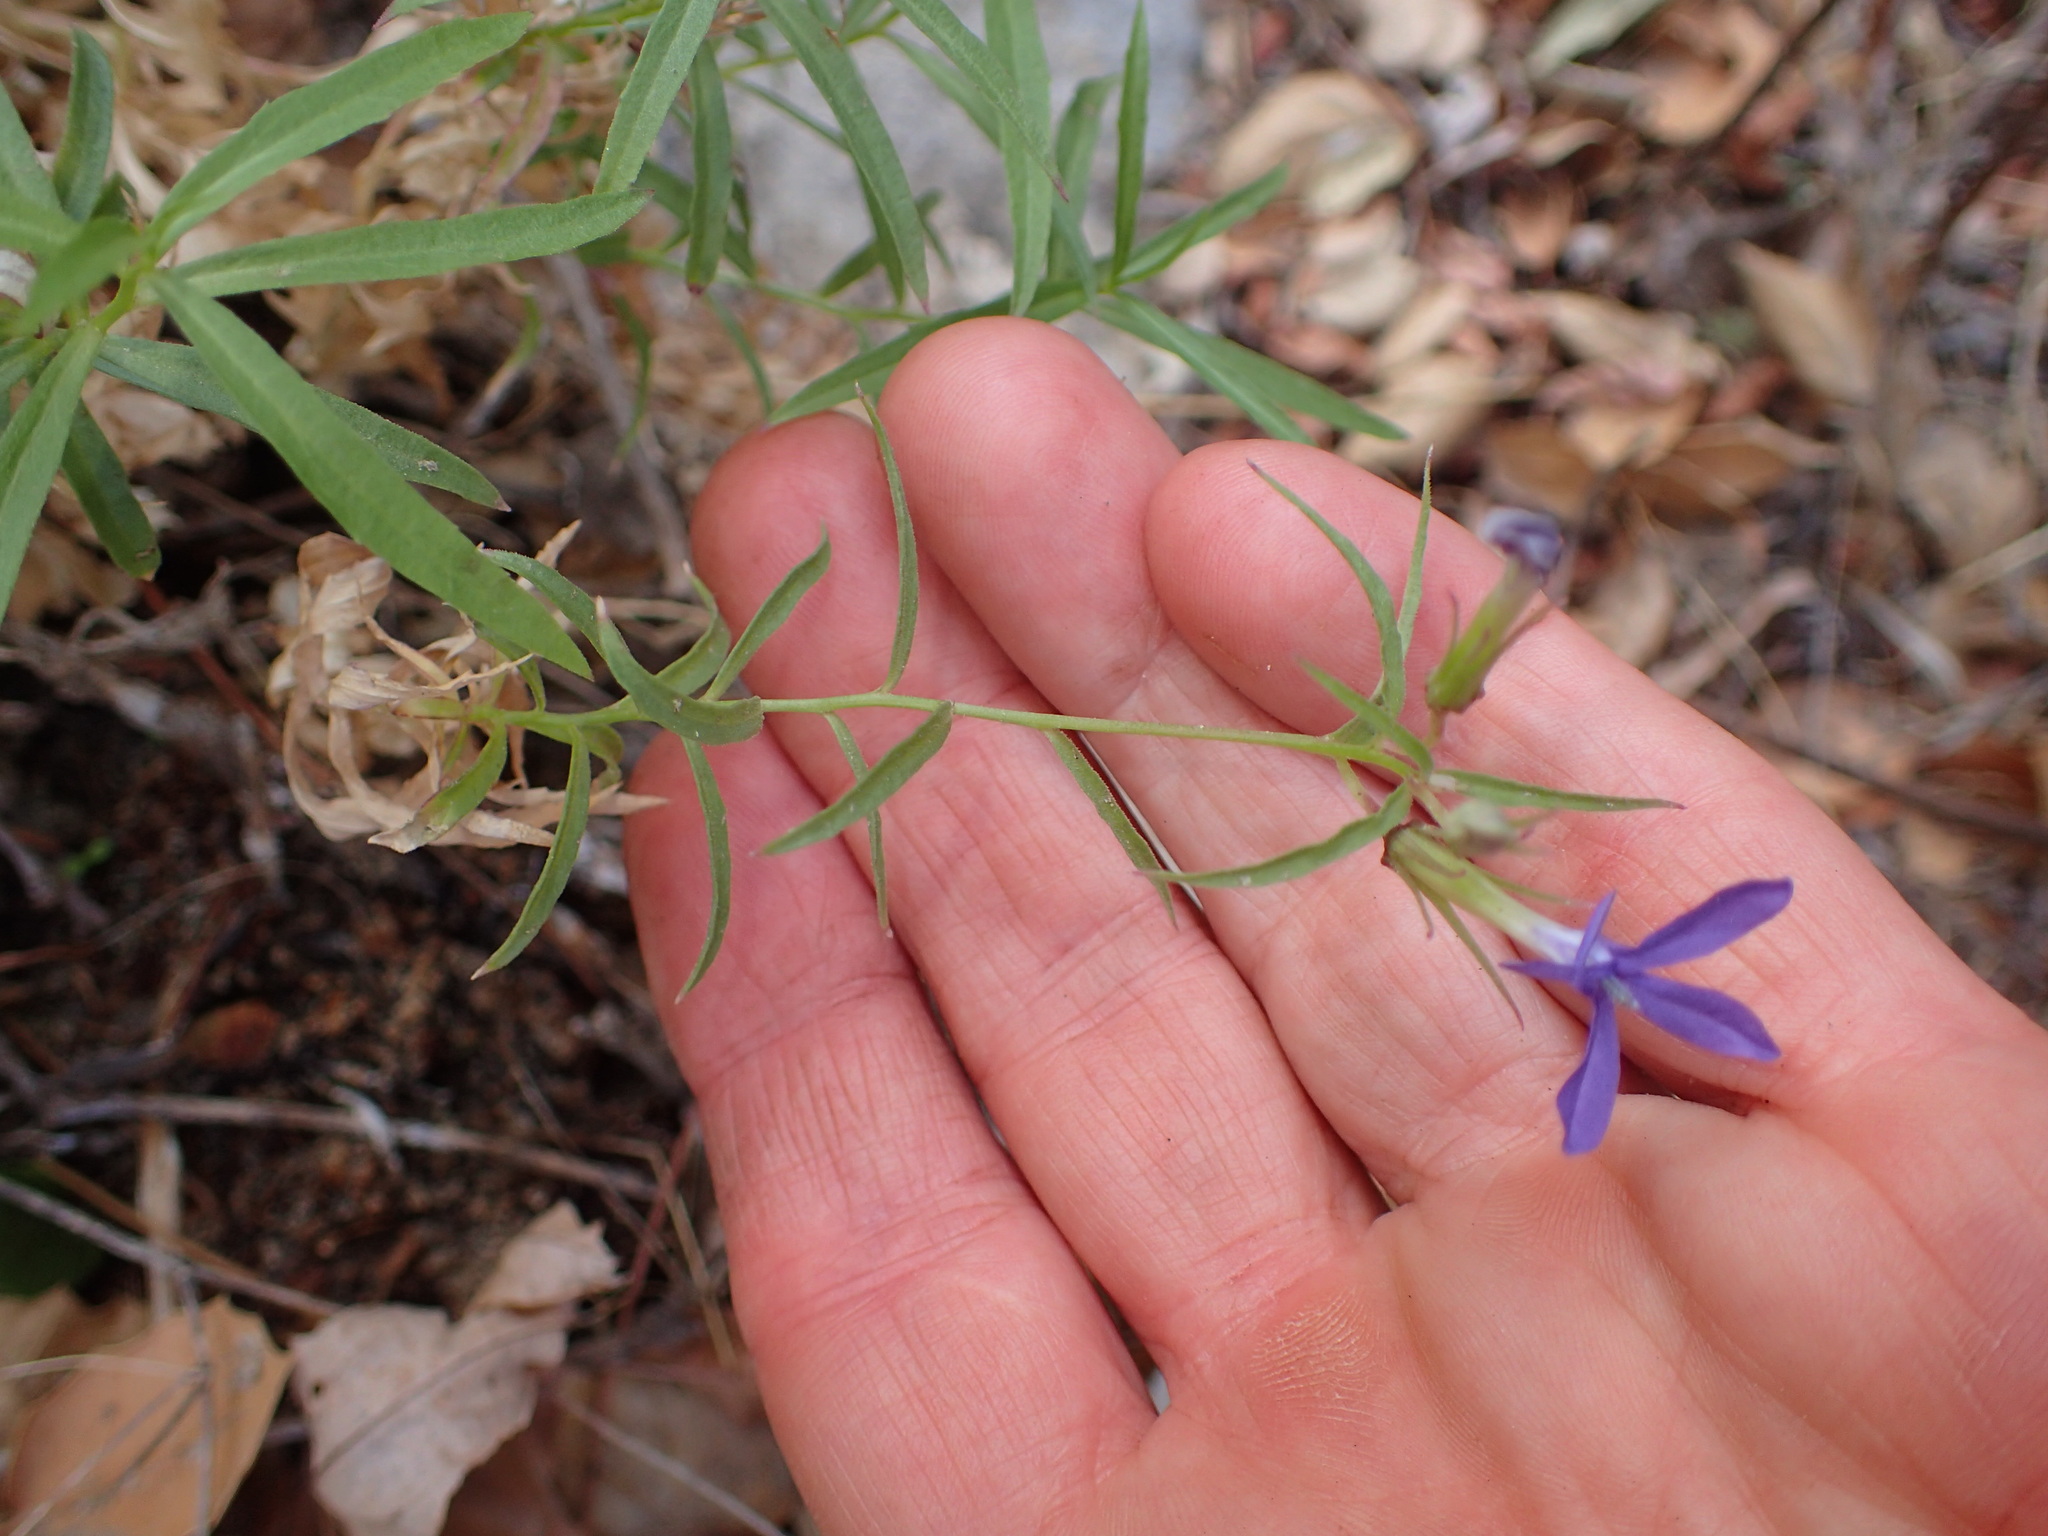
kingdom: Plantae
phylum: Tracheophyta
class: Magnoliopsida
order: Asterales
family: Campanulaceae
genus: Palmerella
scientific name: Palmerella debilis
